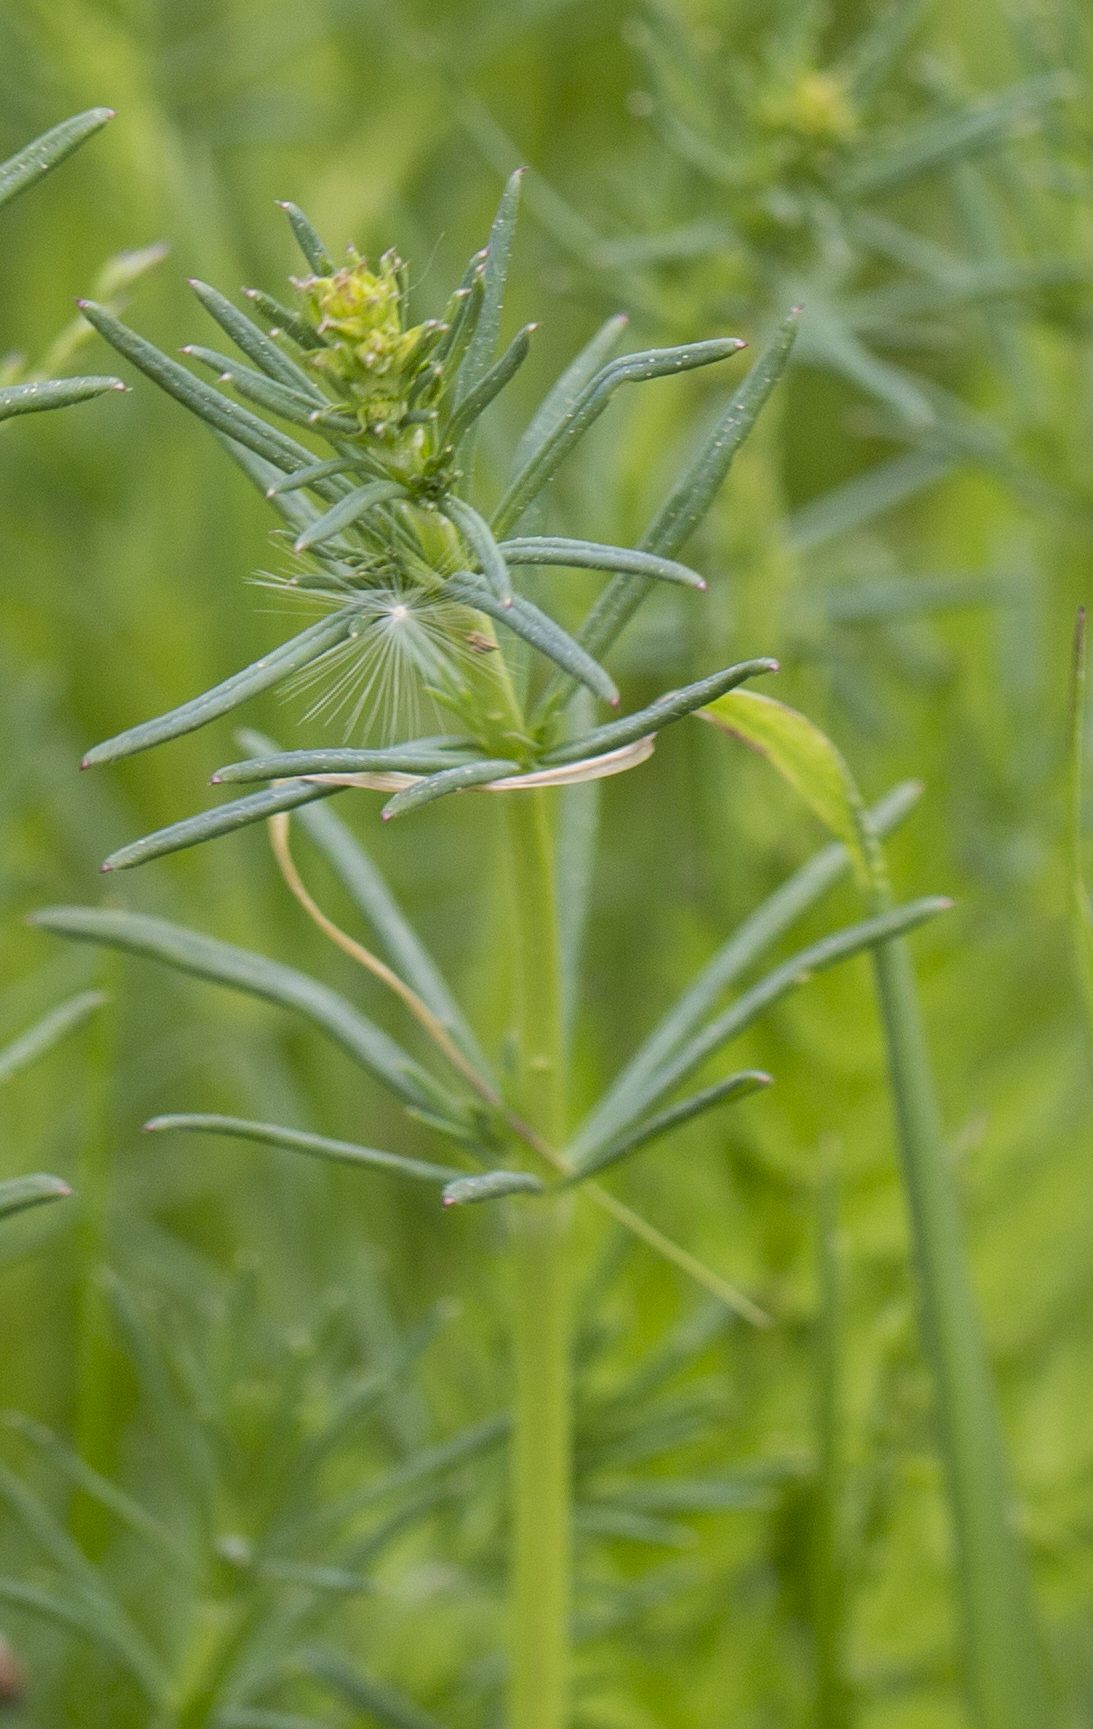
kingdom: Plantae
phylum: Tracheophyta
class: Magnoliopsida
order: Gentianales
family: Rubiaceae
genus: Galium
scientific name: Galium verum
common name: Lady's bedstraw
